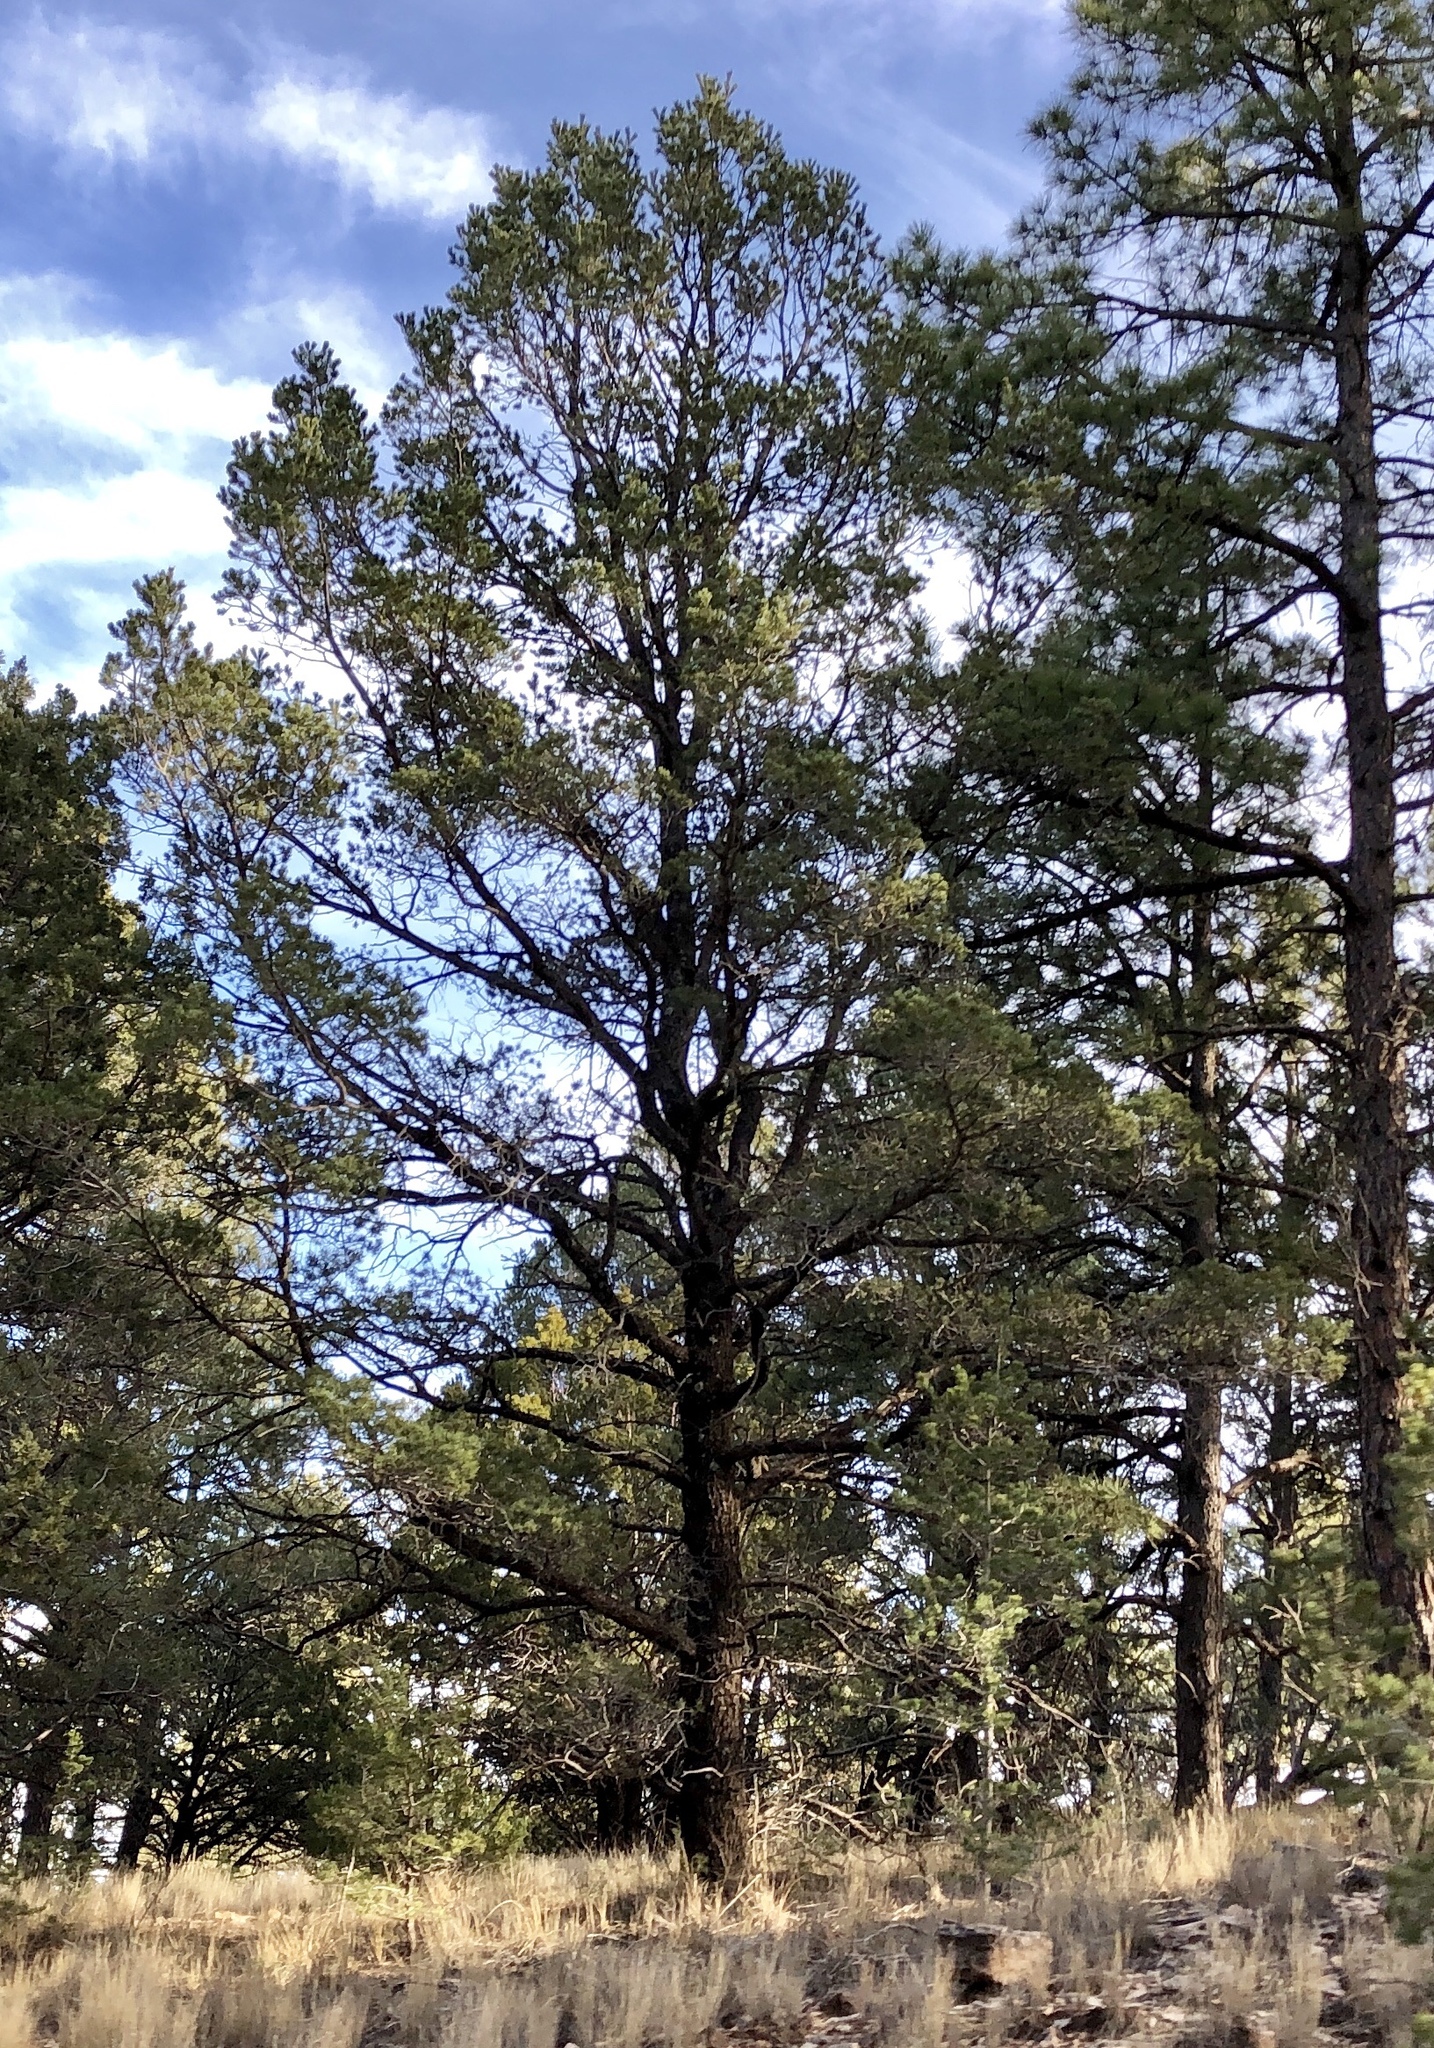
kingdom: Plantae
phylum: Tracheophyta
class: Pinopsida
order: Pinales
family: Pinaceae
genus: Pinus
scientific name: Pinus edulis
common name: Colorado pinyon
